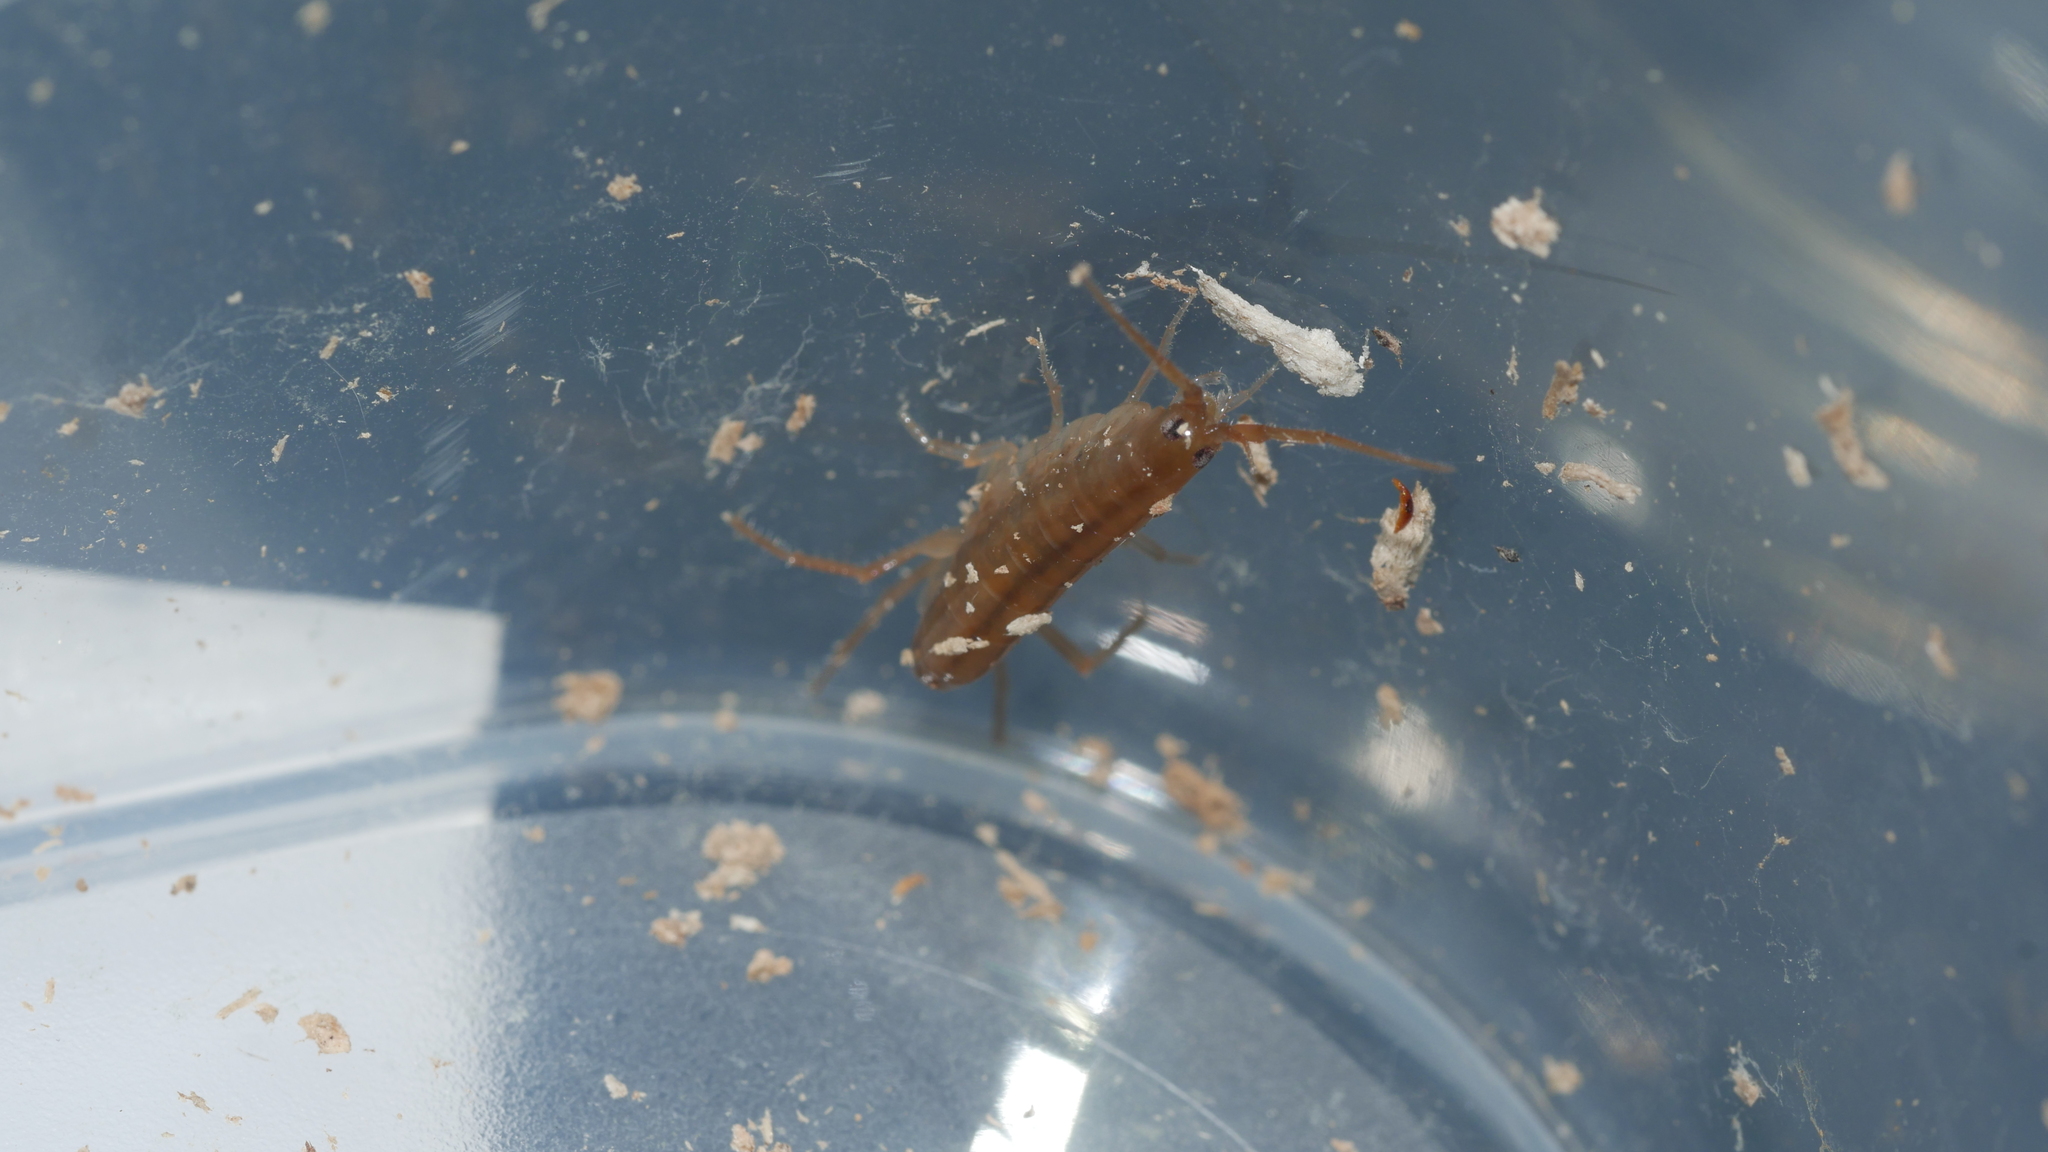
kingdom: Animalia
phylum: Arthropoda
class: Malacostraca
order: Amphipoda
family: Talitridae
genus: Speziorchestia
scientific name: Speziorchestia grillus
